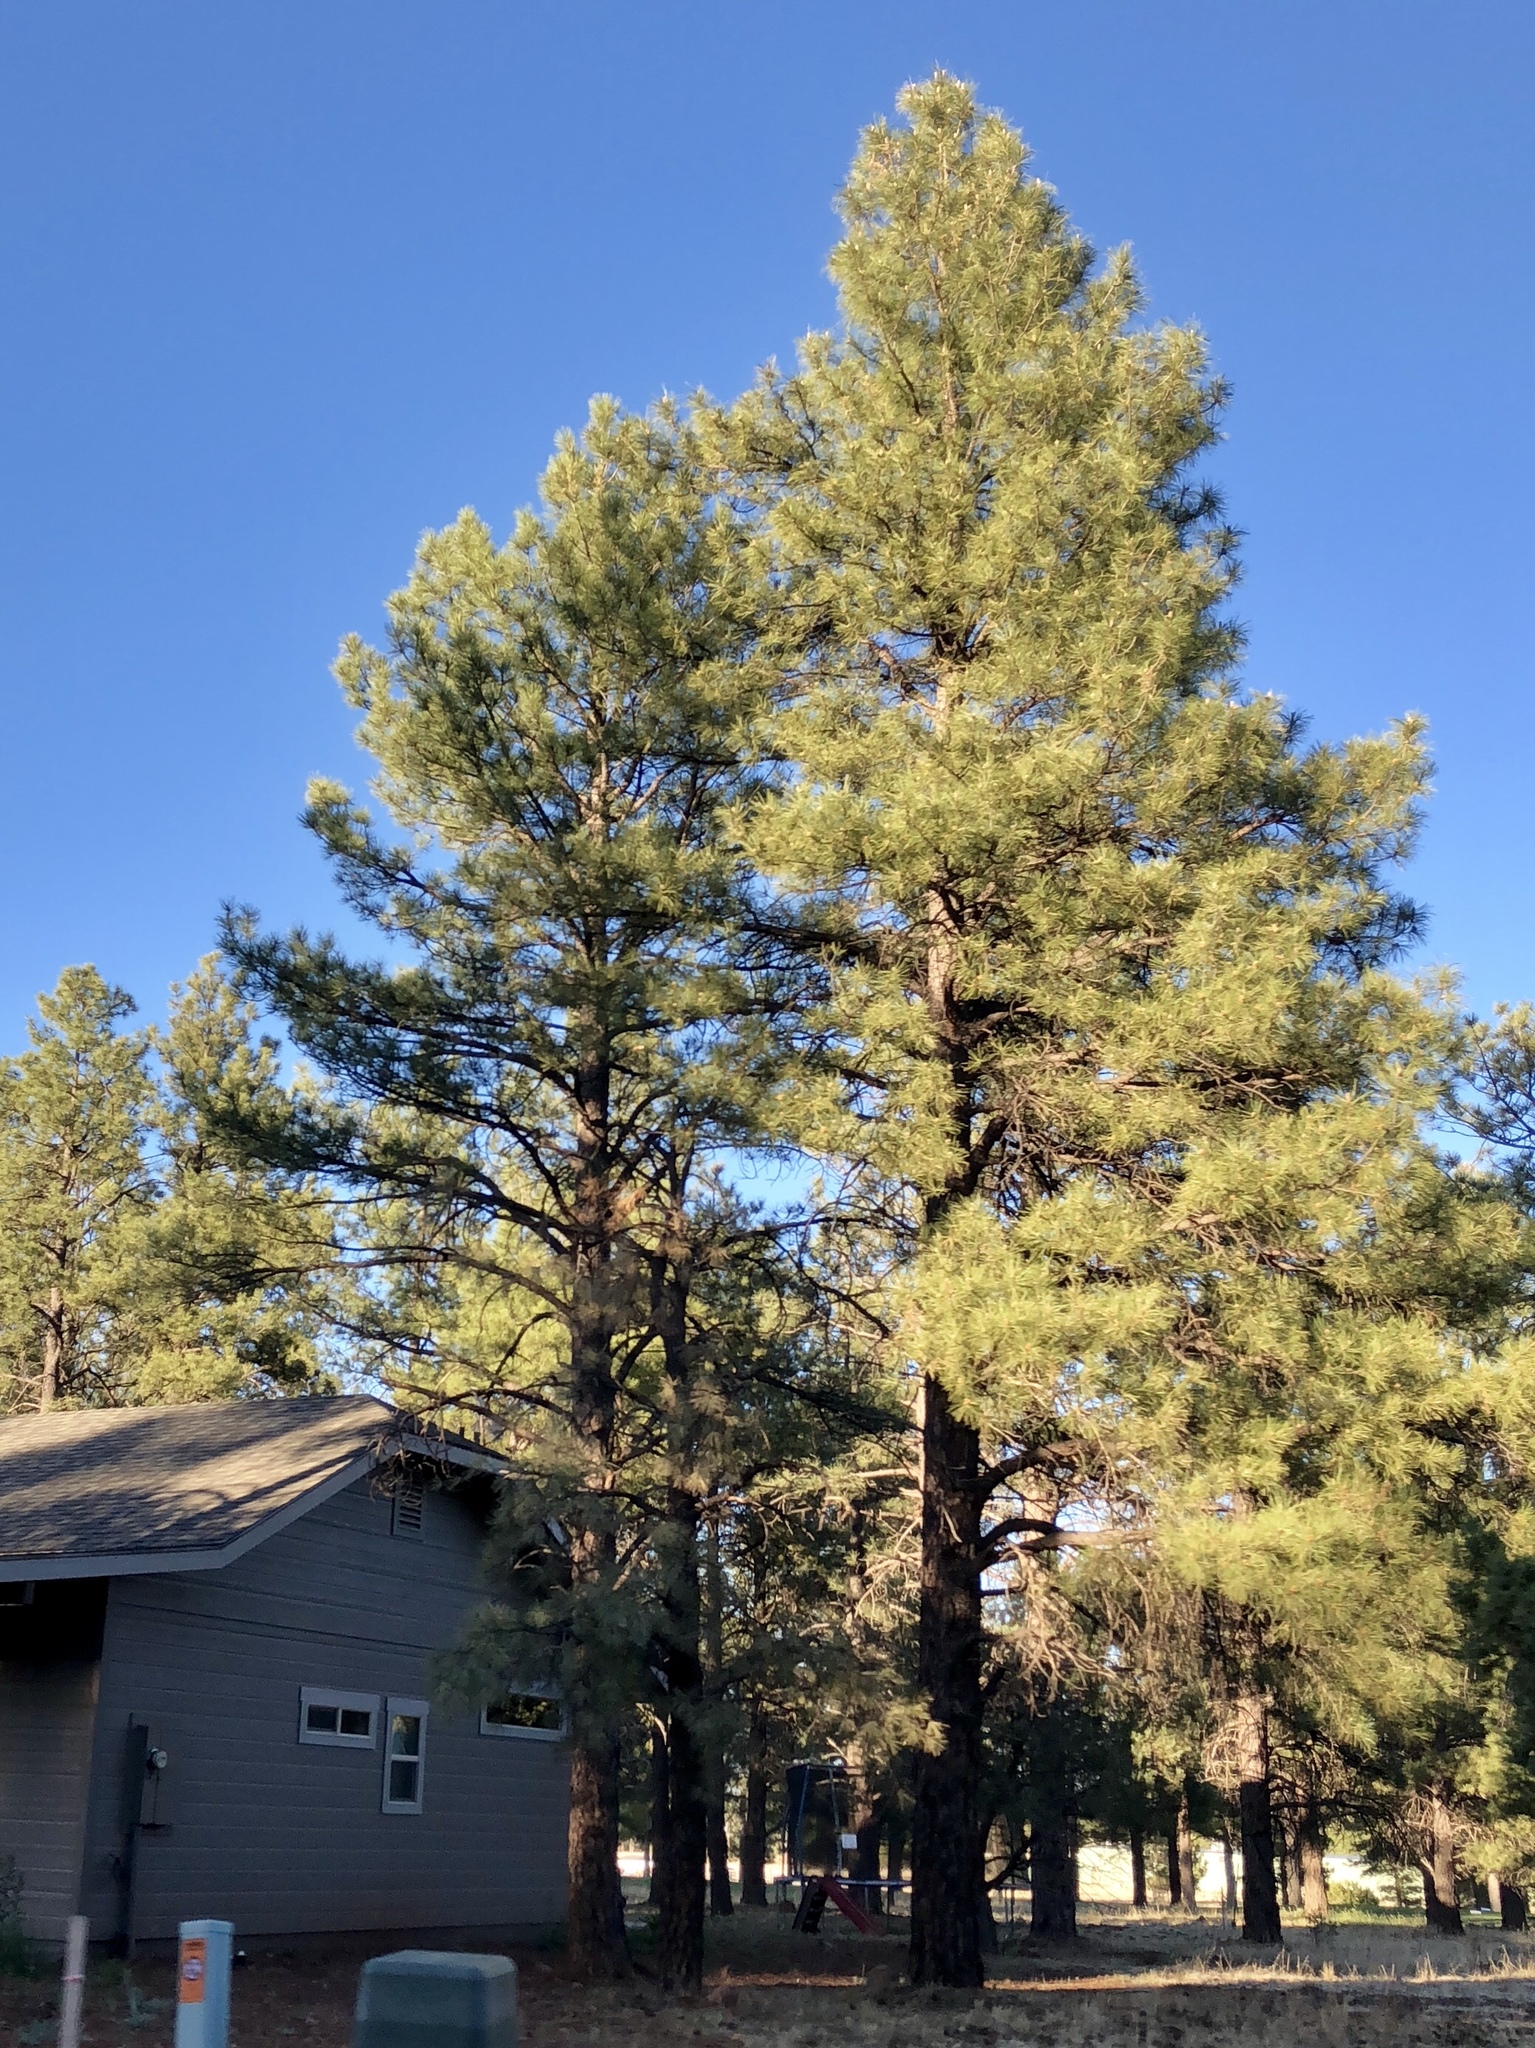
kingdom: Plantae
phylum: Tracheophyta
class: Pinopsida
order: Pinales
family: Pinaceae
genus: Pinus
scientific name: Pinus ponderosa
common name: Western yellow-pine
